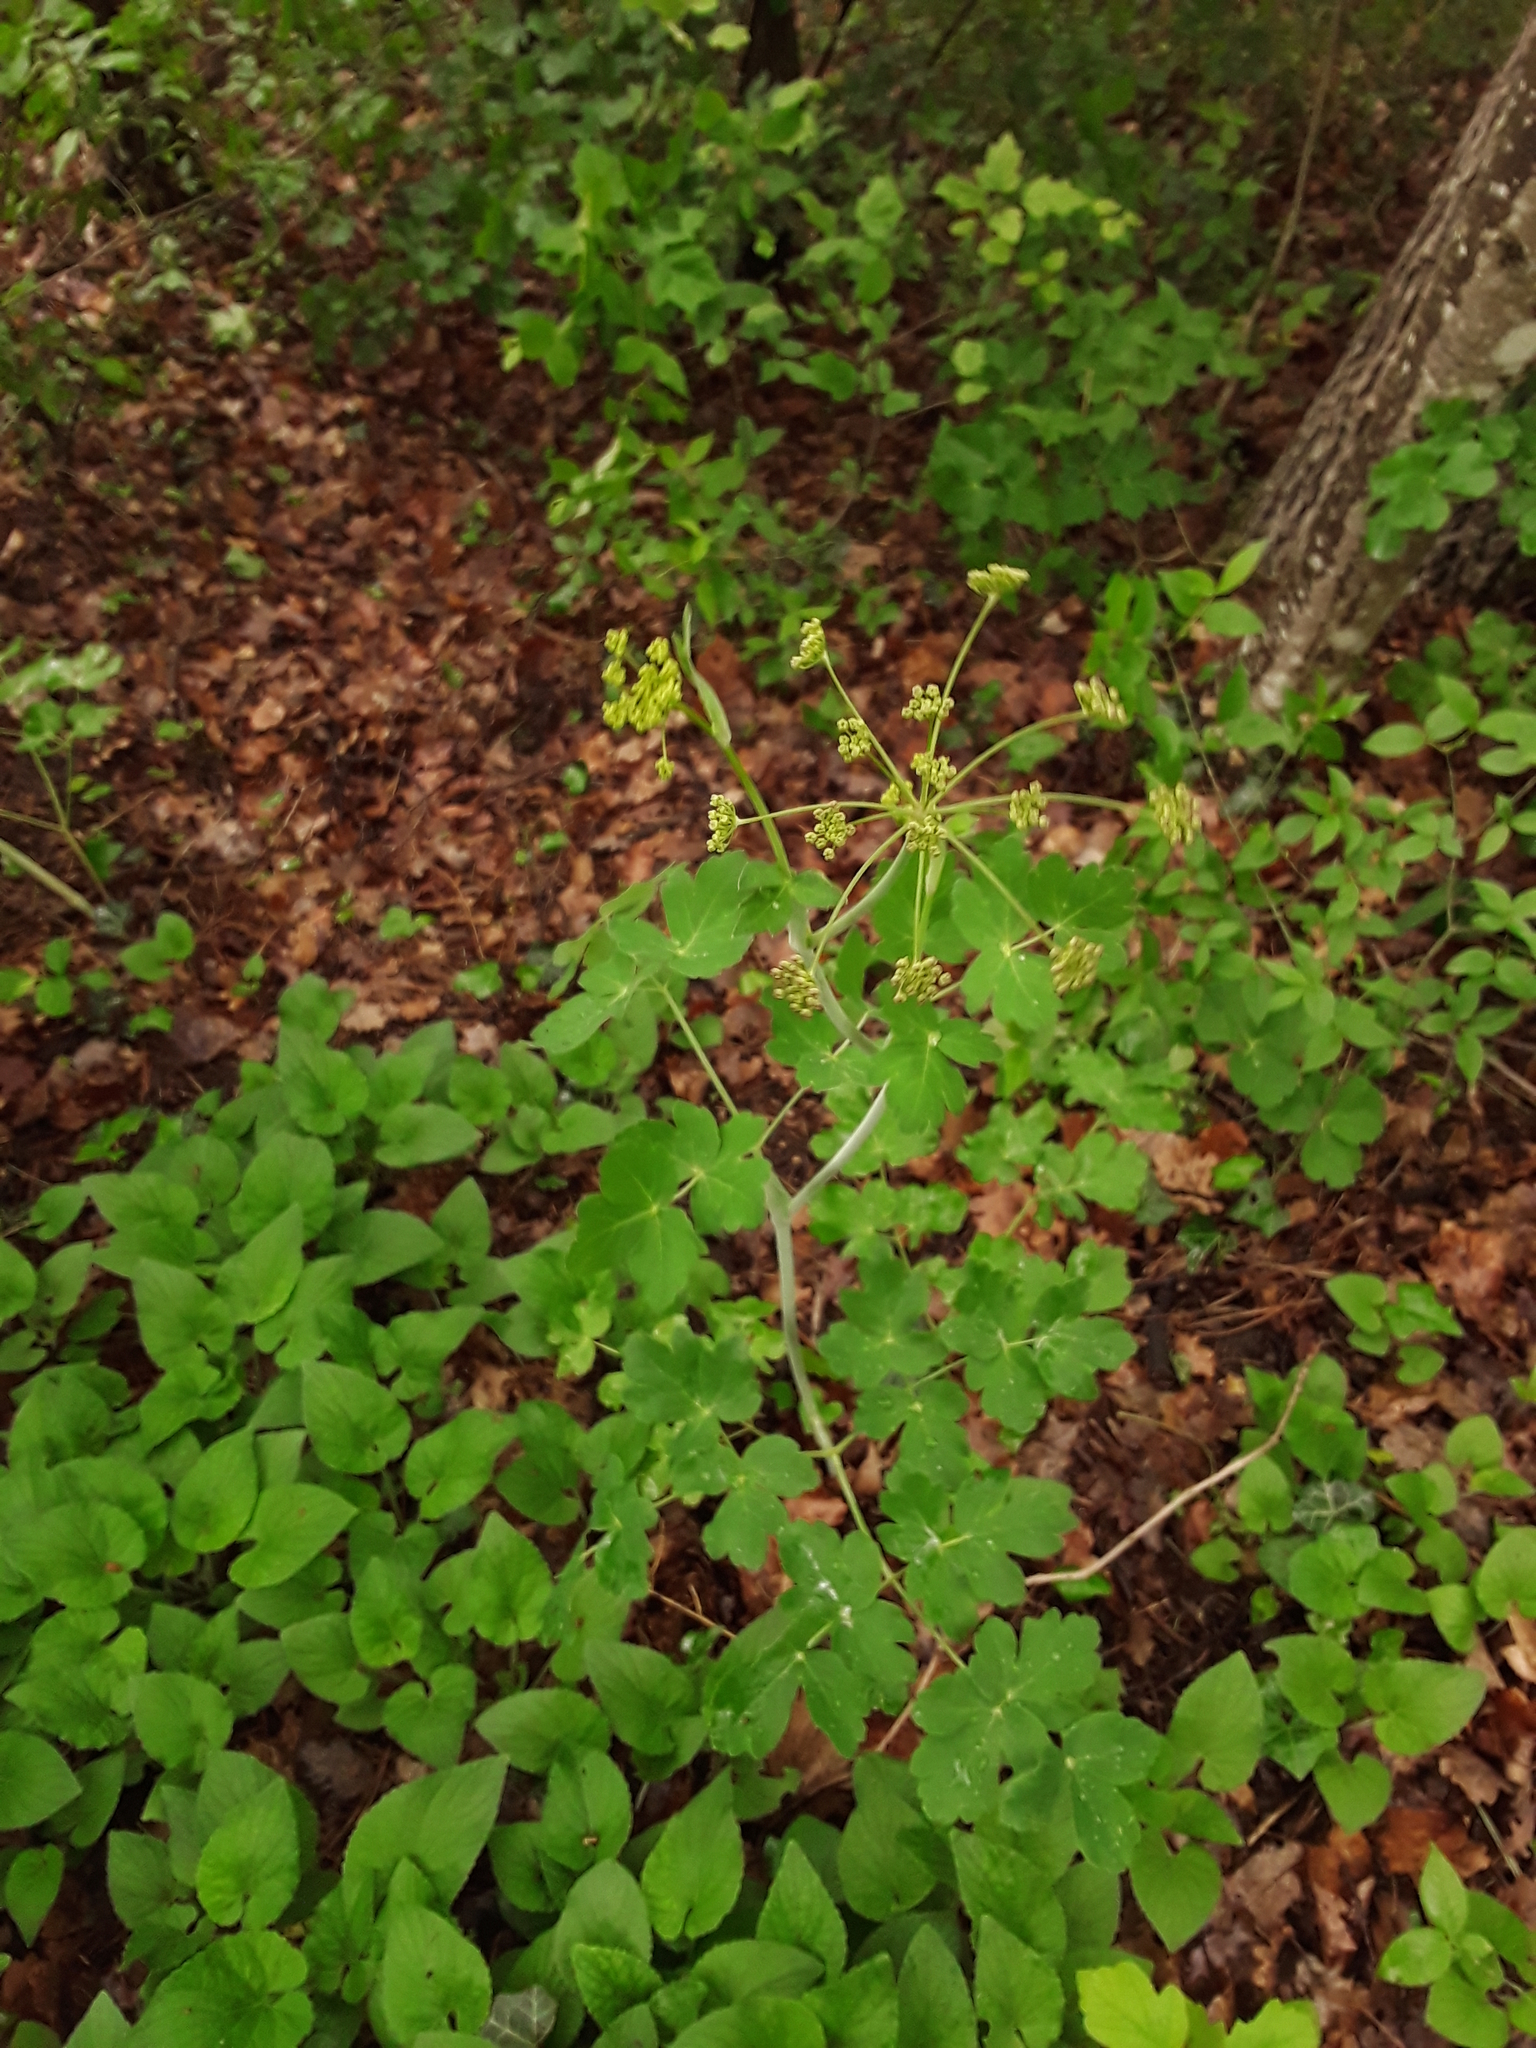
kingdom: Plantae
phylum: Tracheophyta
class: Magnoliopsida
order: Apiales
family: Apiaceae
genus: Laser
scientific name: Laser trilobum
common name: Laser
